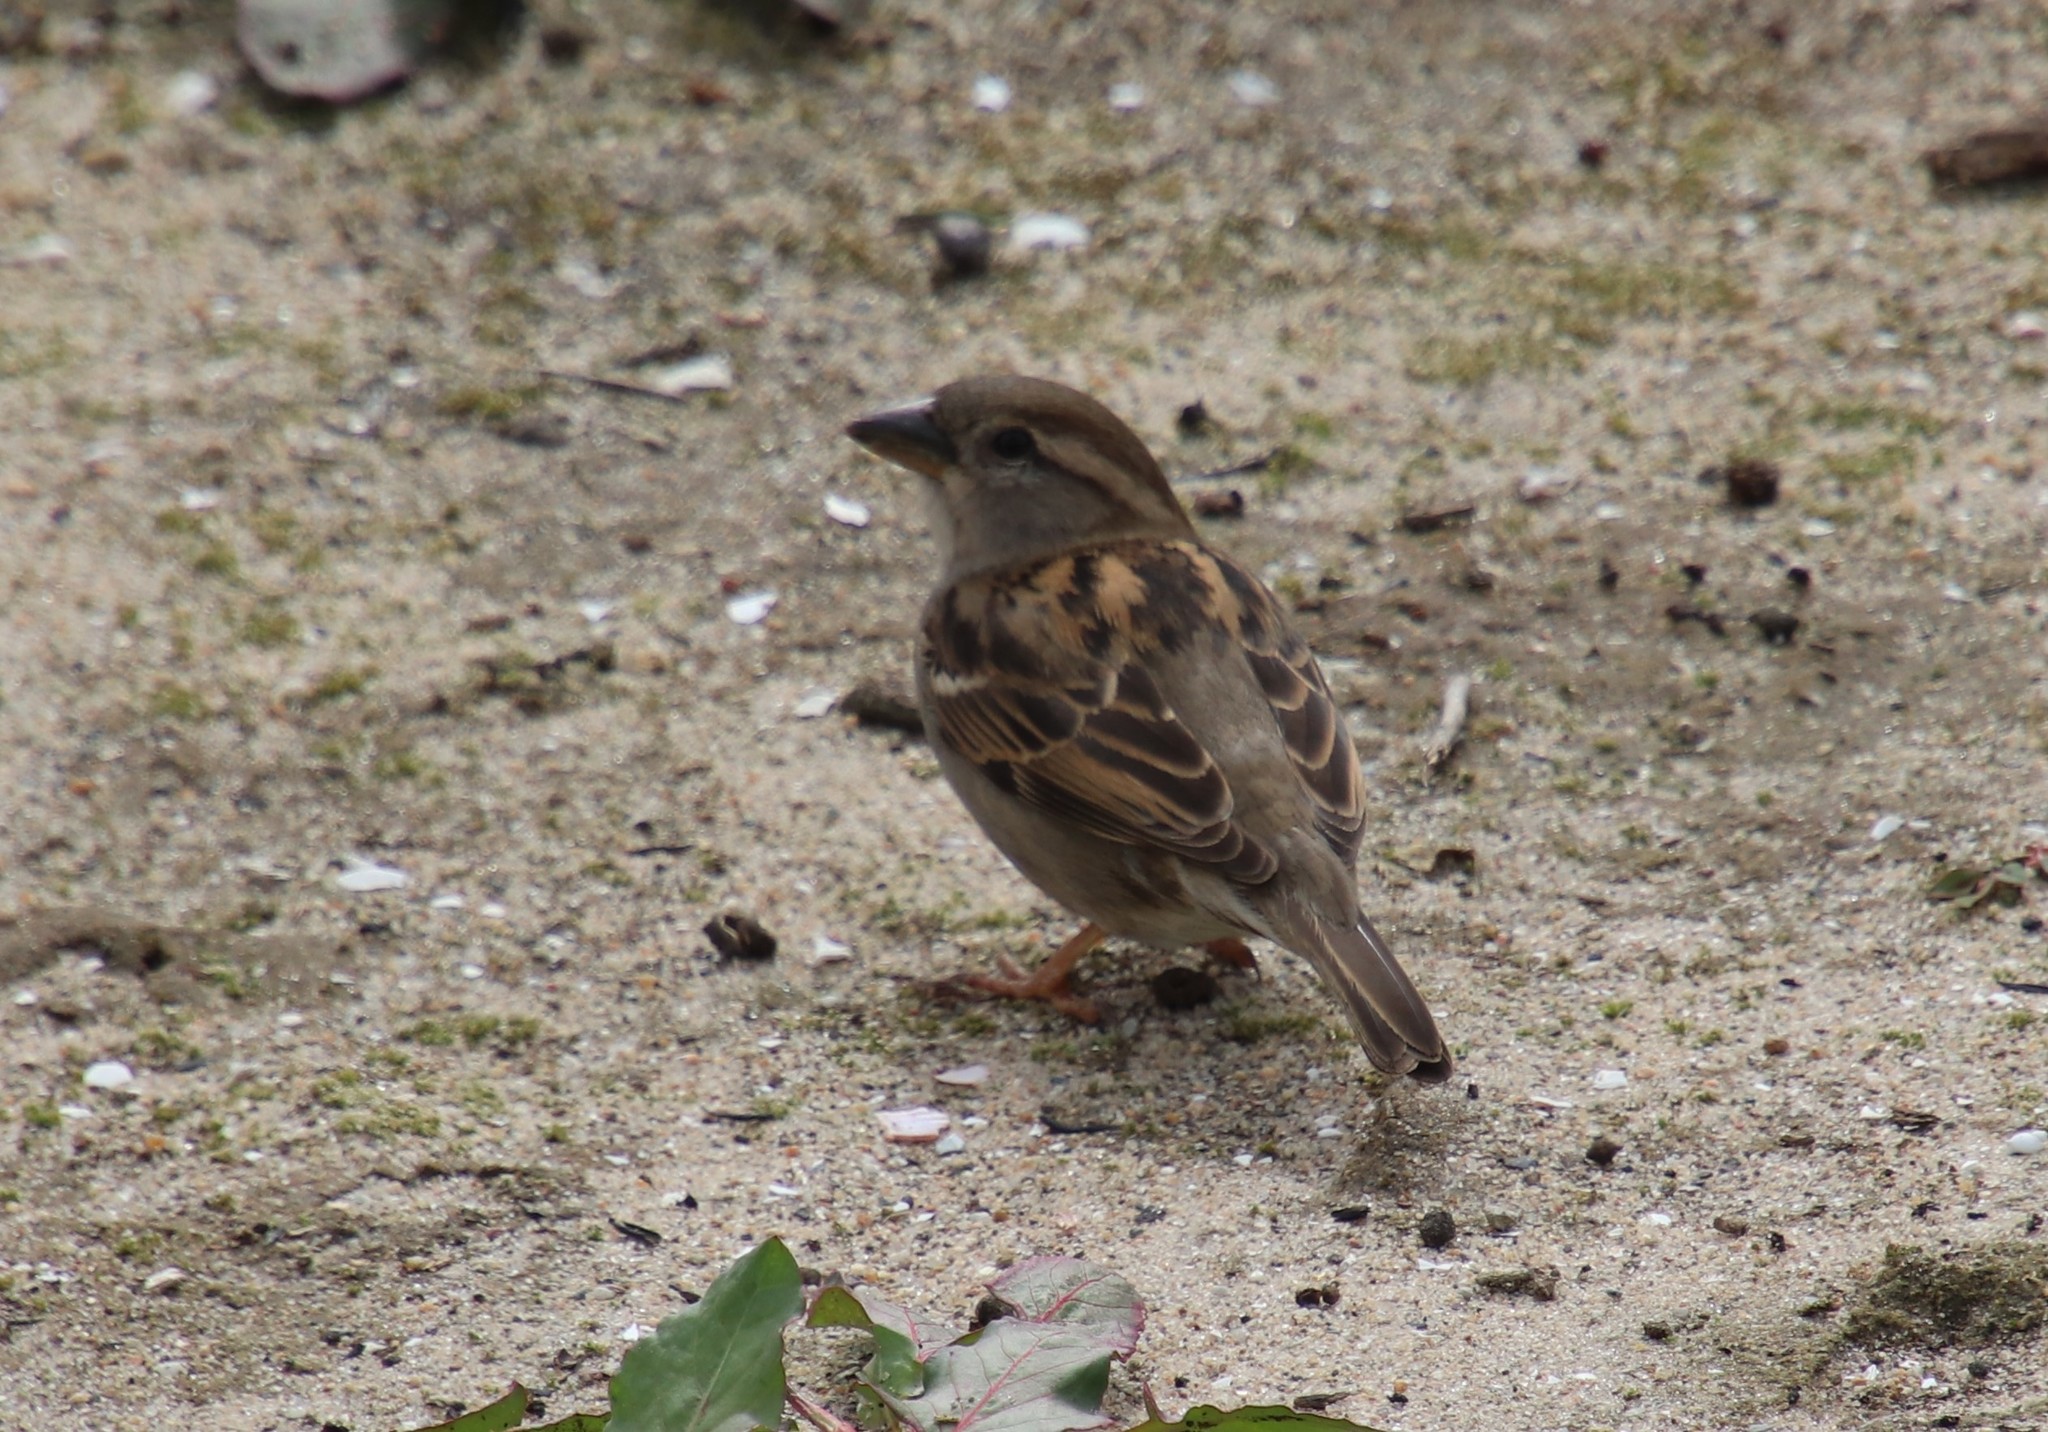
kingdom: Animalia
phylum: Chordata
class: Aves
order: Passeriformes
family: Passeridae
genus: Passer
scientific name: Passer domesticus
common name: House sparrow
